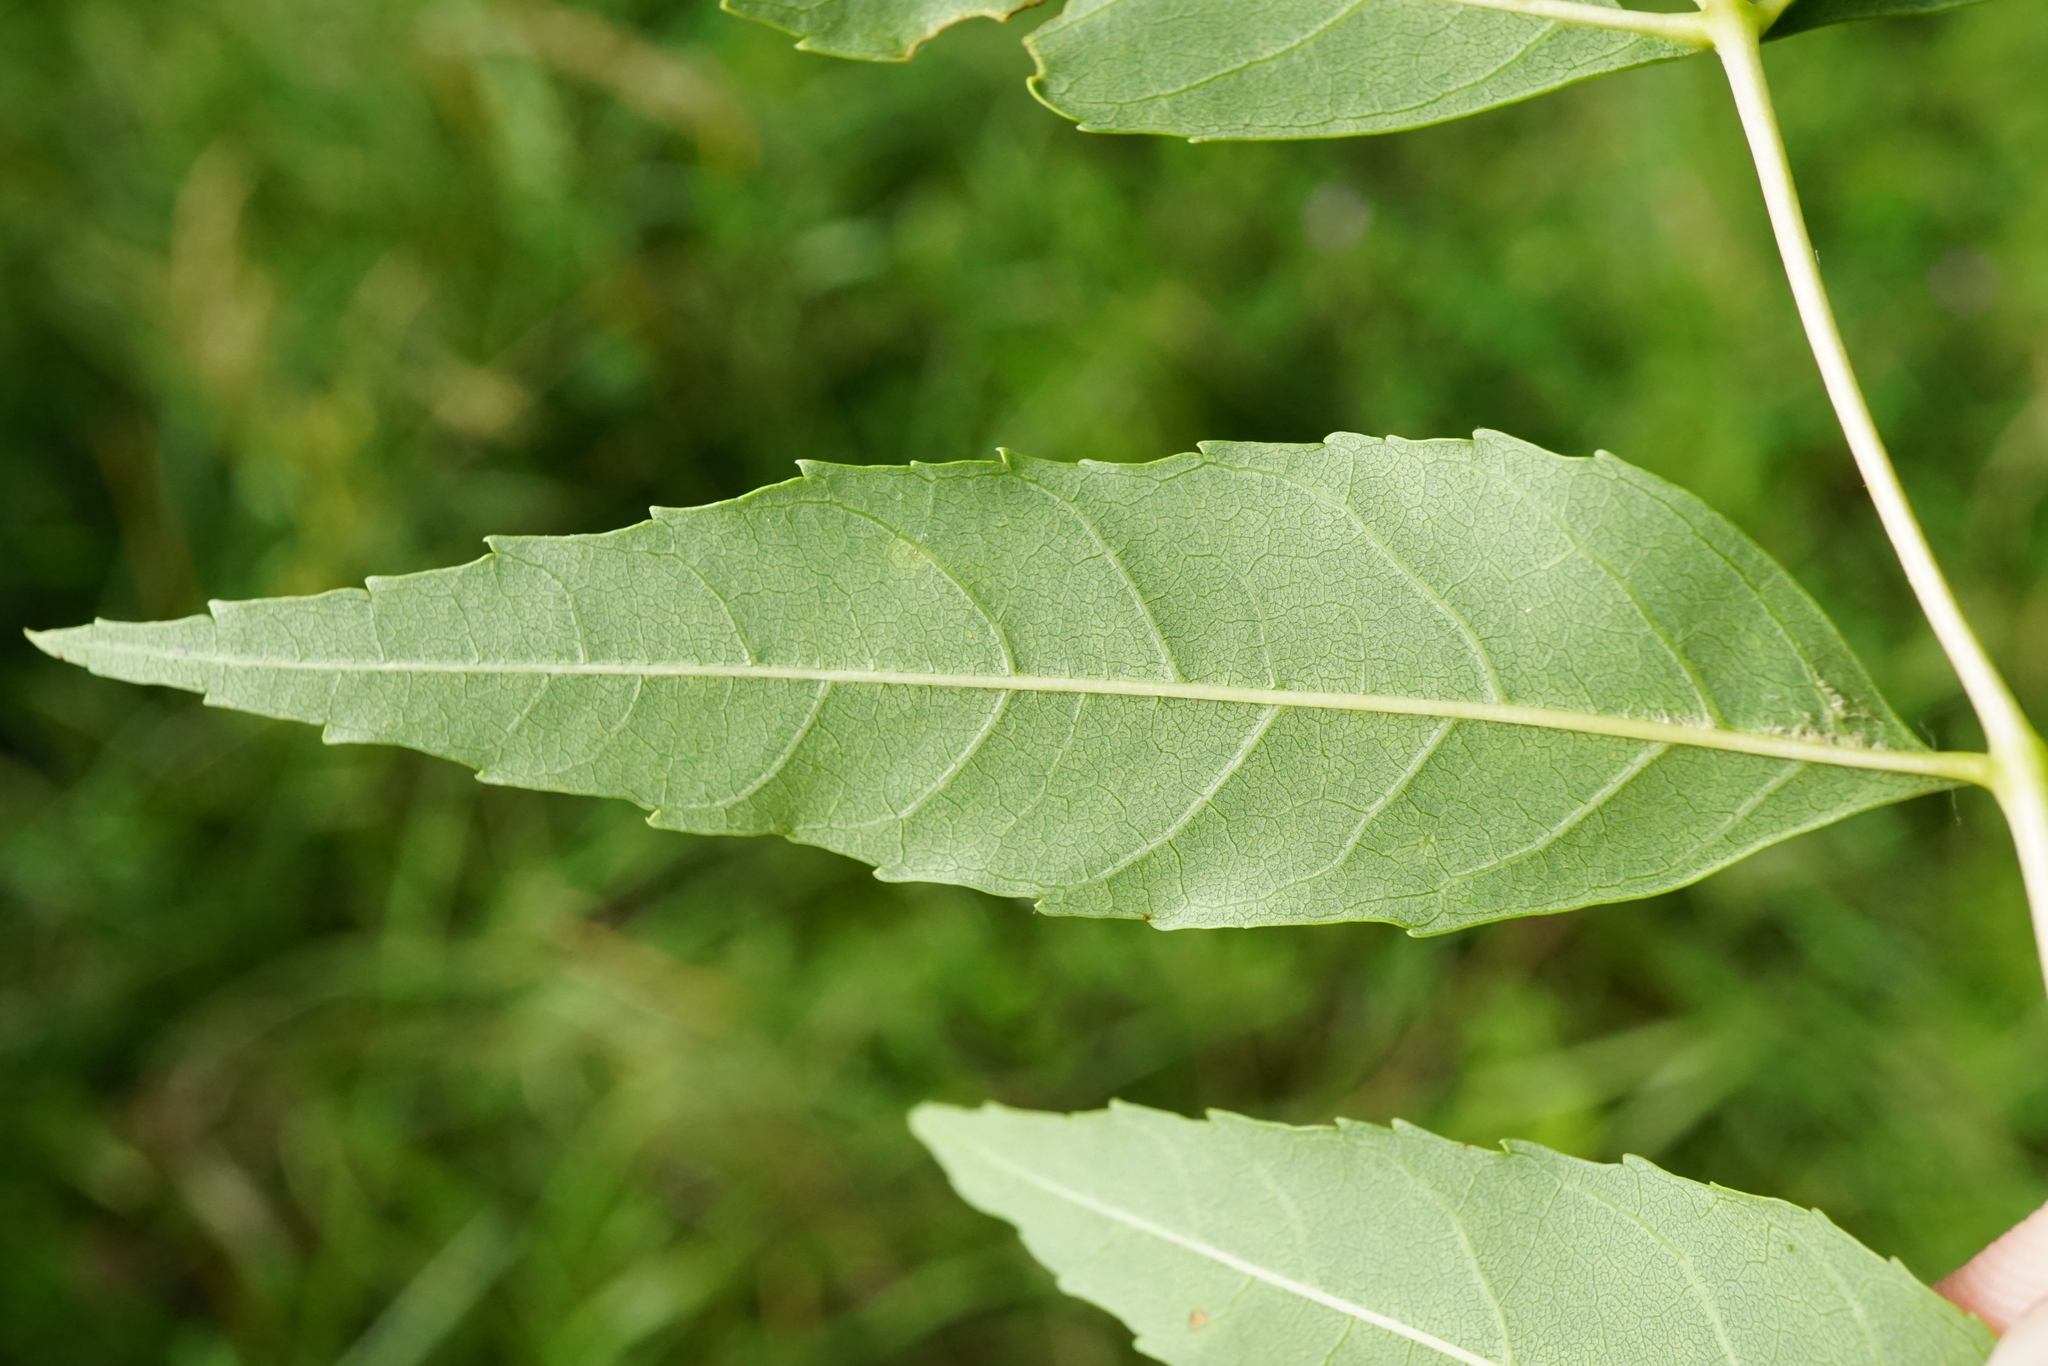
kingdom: Plantae
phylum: Tracheophyta
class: Magnoliopsida
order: Lamiales
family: Oleaceae
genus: Fraxinus
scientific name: Fraxinus angustifolia
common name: Narrow-leafed ash
